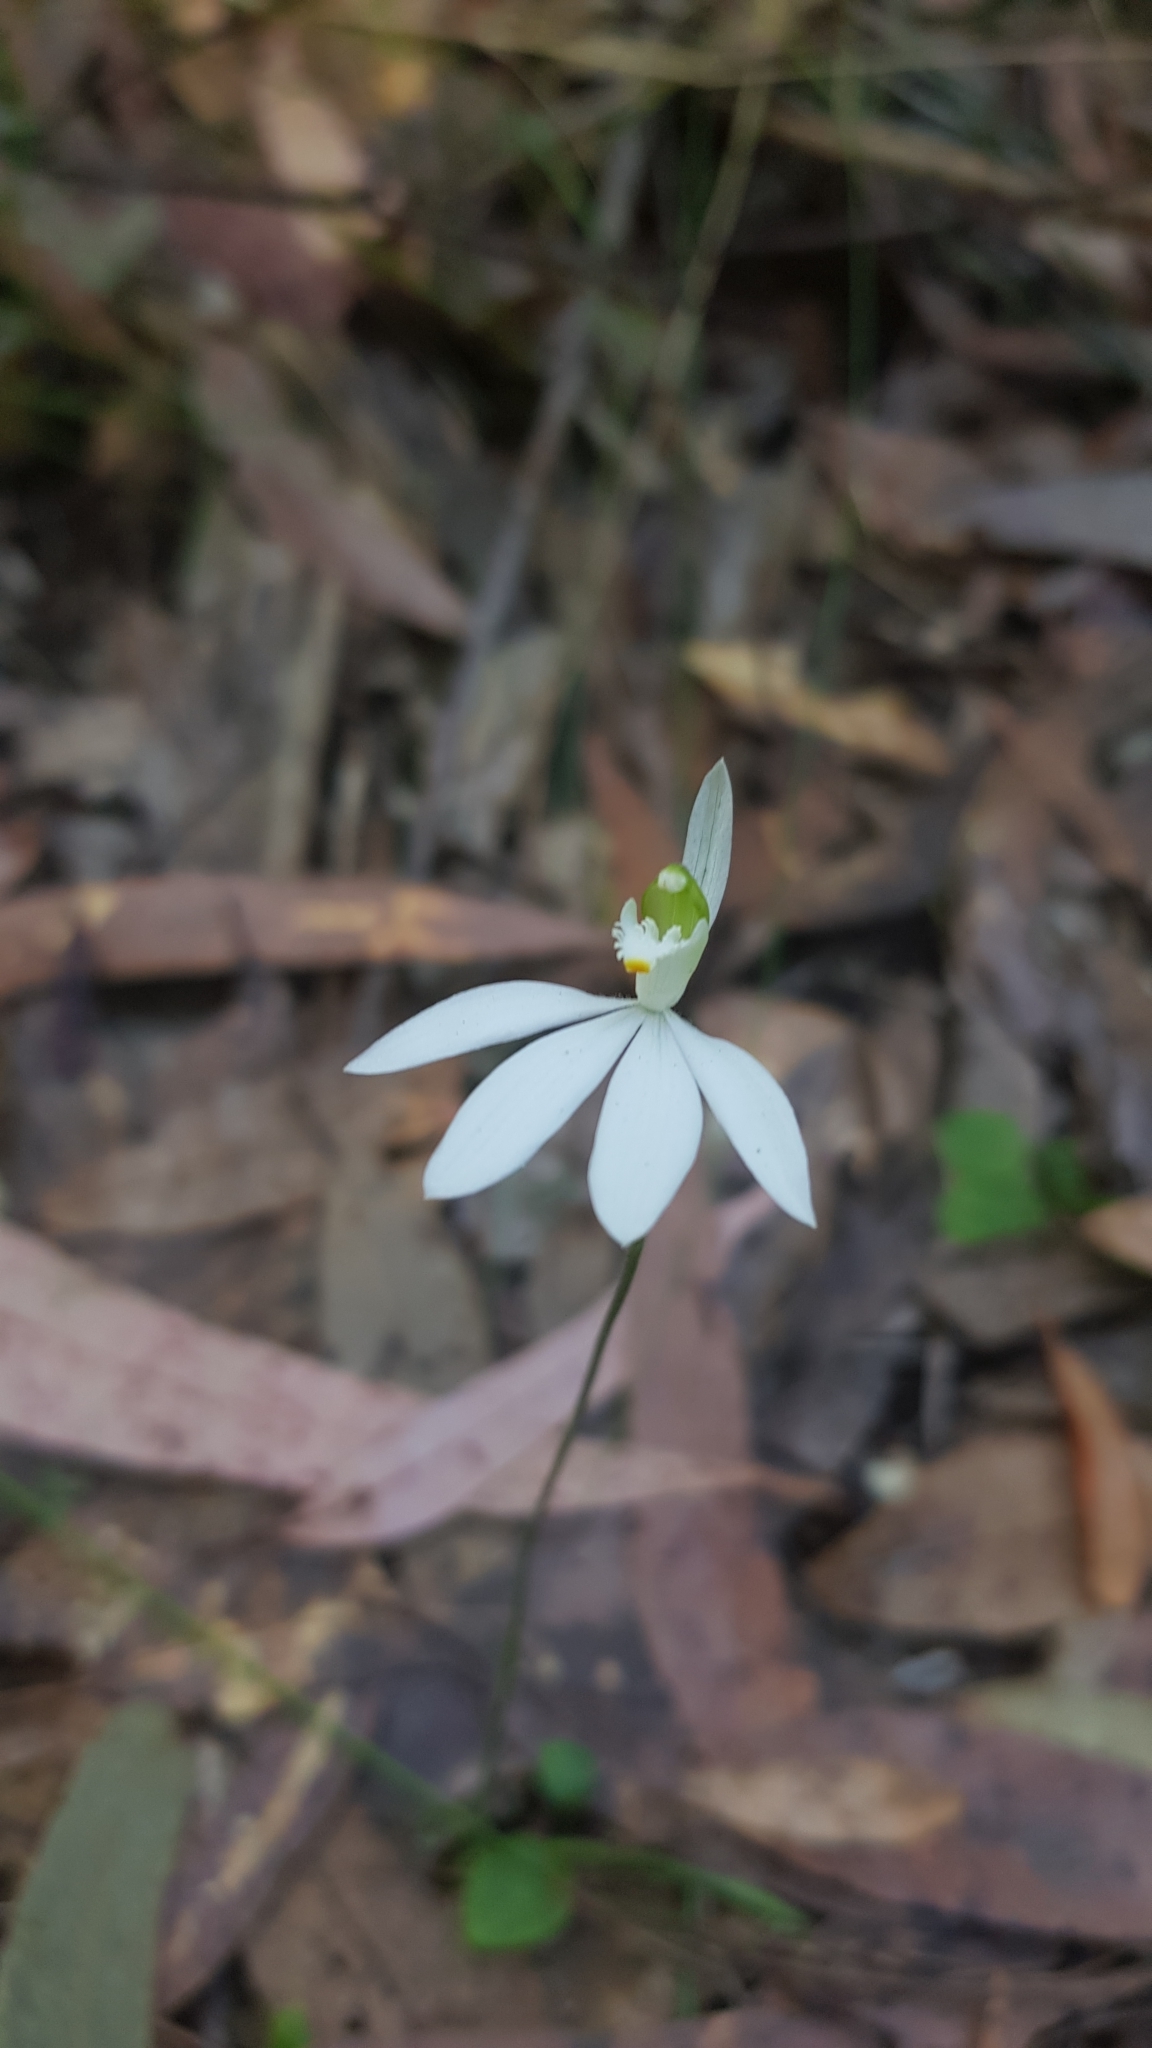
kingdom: Plantae
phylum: Tracheophyta
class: Liliopsida
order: Asparagales
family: Orchidaceae
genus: Caladenia
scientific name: Caladenia catenata
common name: White caladenia
